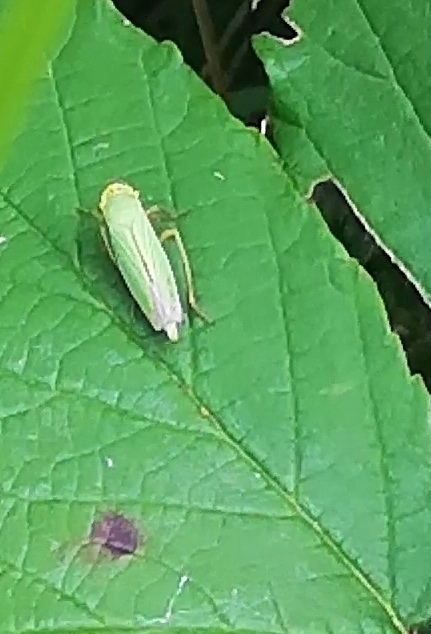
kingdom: Animalia
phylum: Arthropoda
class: Insecta
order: Hemiptera
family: Cicadellidae
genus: Cicadella
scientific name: Cicadella viridis
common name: Leafhopper
